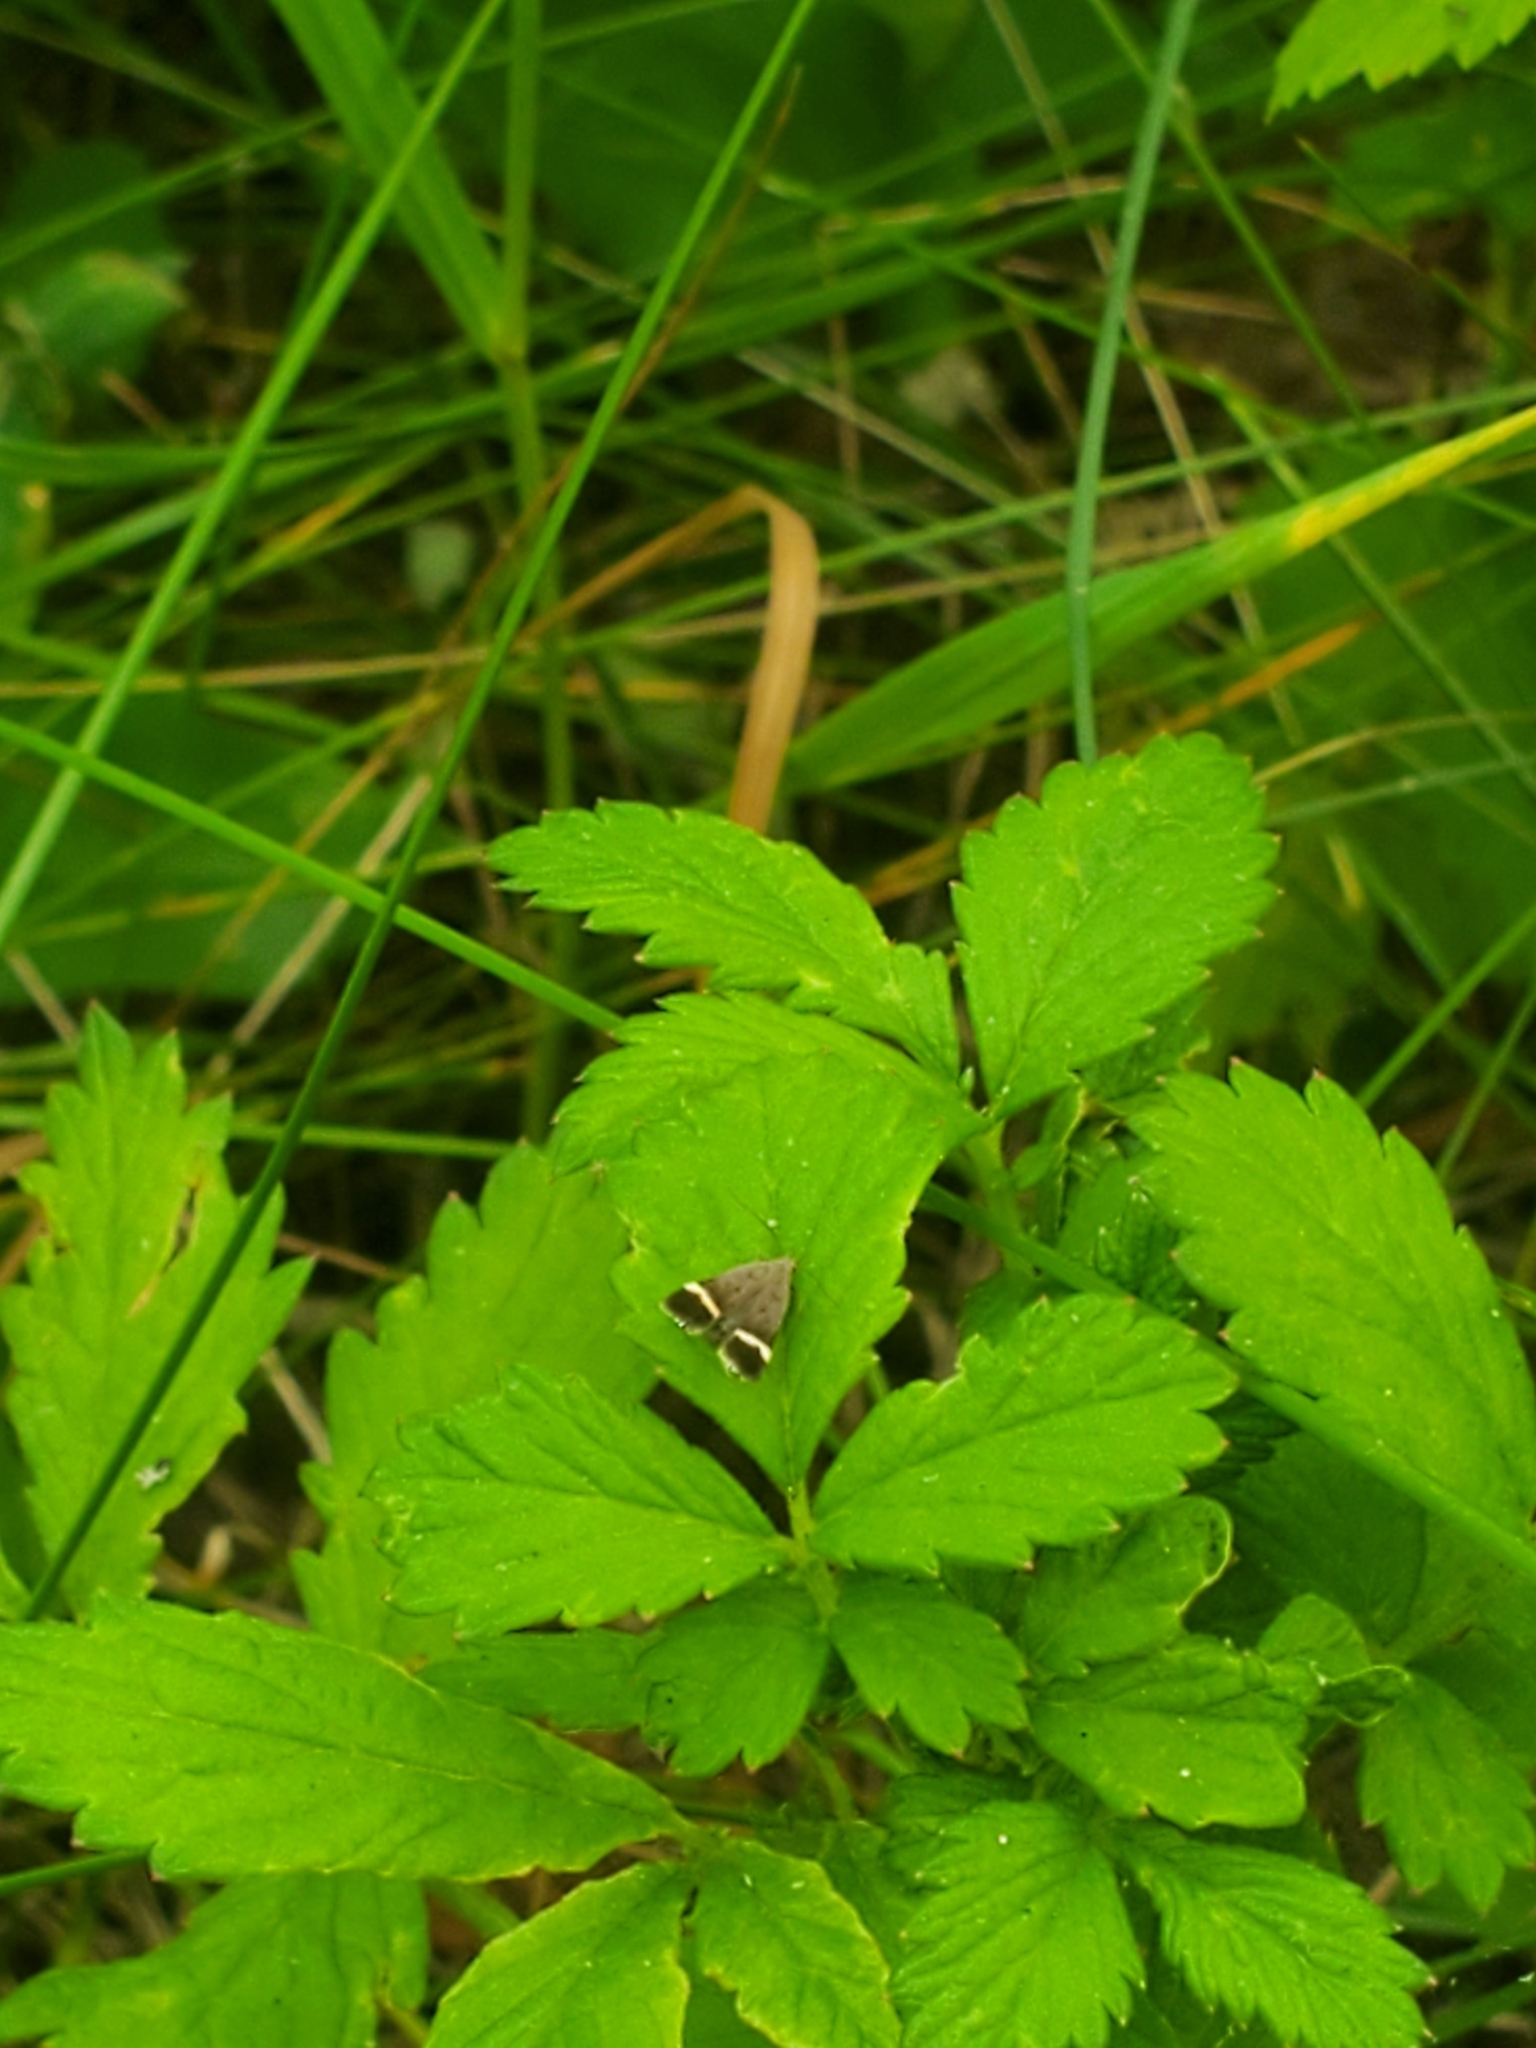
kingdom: Animalia
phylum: Arthropoda
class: Insecta
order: Lepidoptera
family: Gelechiidae
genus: Anacampsis
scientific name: Anacampsis agrimoniella
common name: Agrimony anacampsis moth
